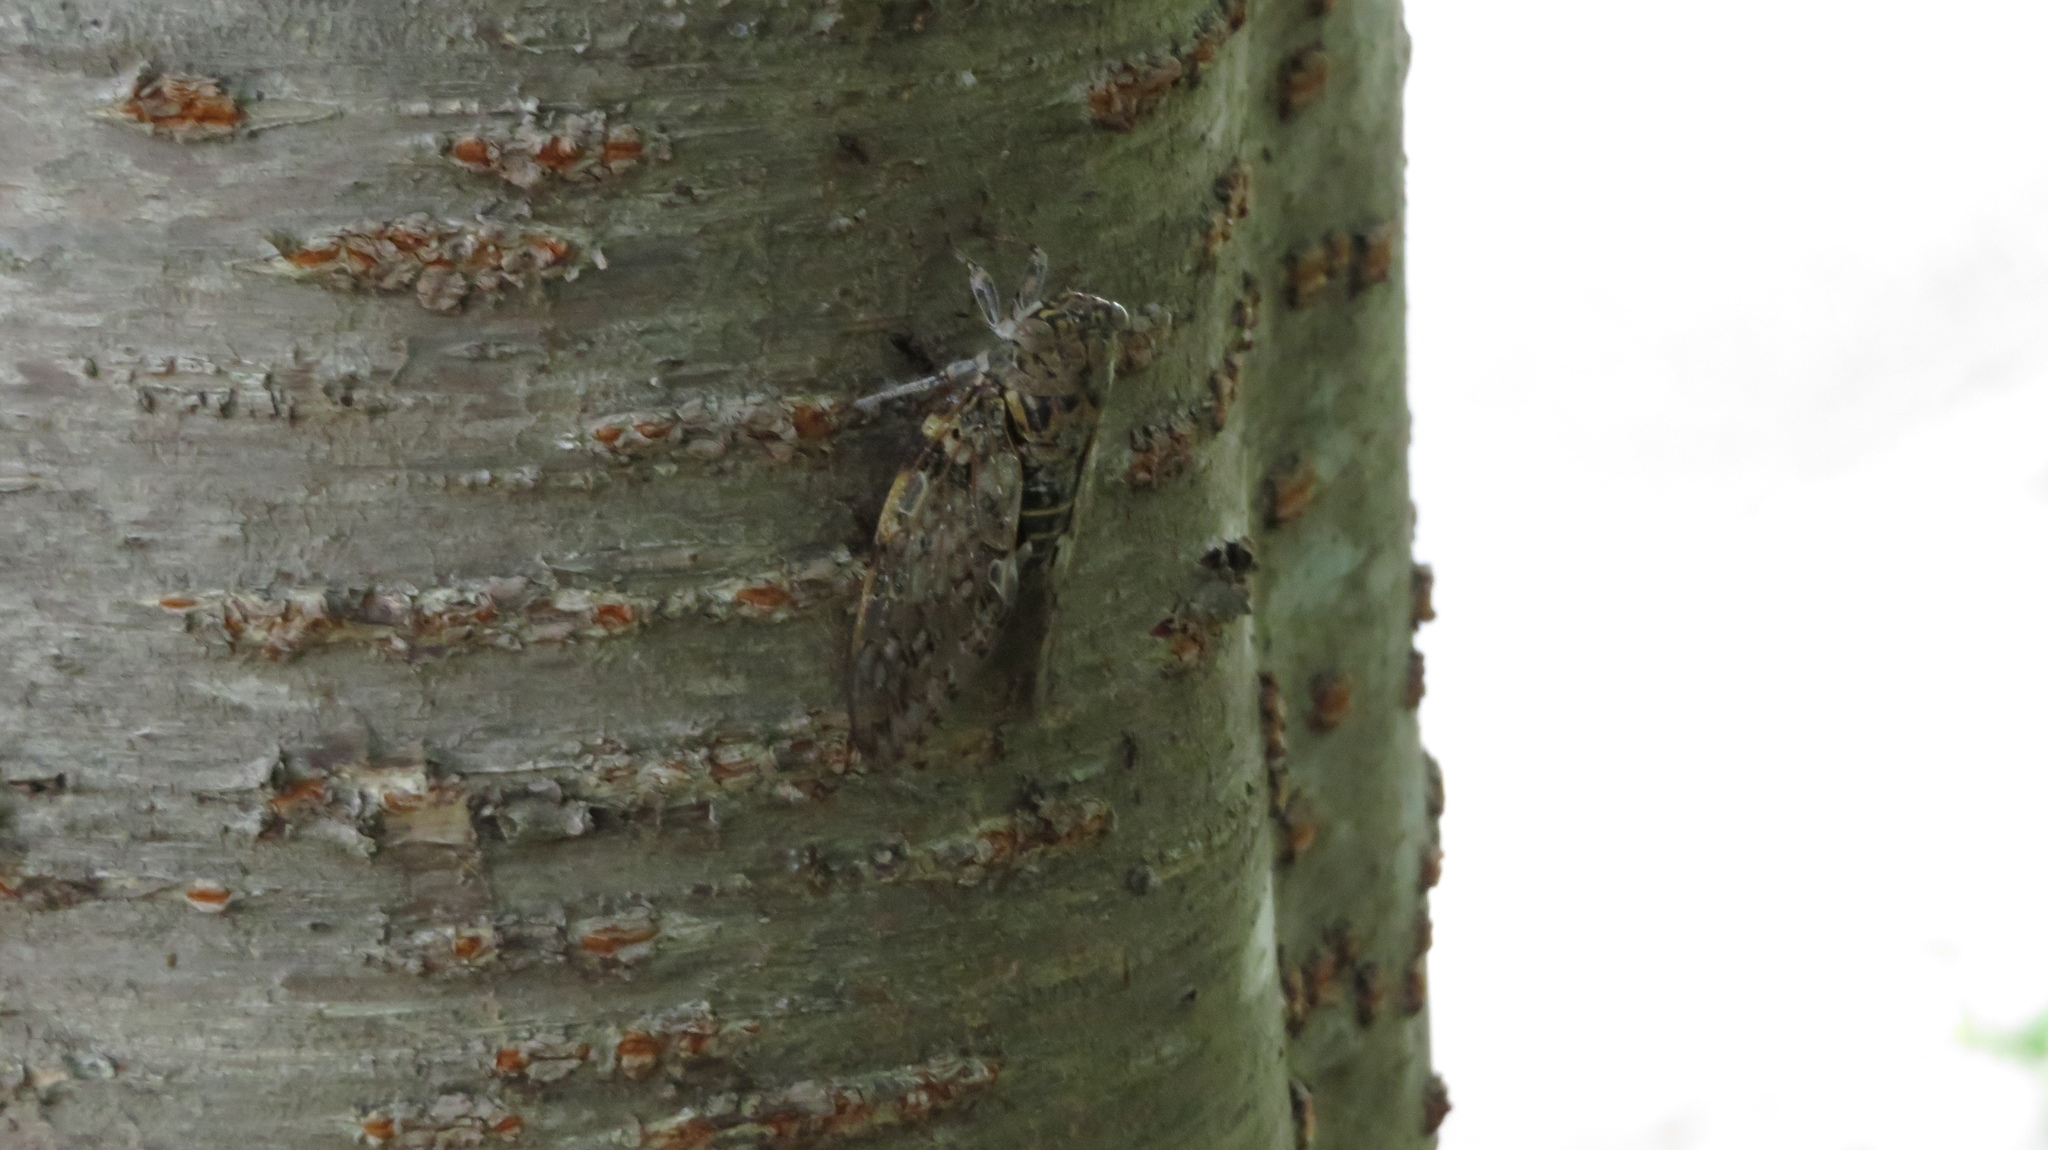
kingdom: Animalia
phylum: Arthropoda
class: Insecta
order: Hemiptera
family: Cicadidae
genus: Platypleura
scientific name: Platypleura kaempferi
